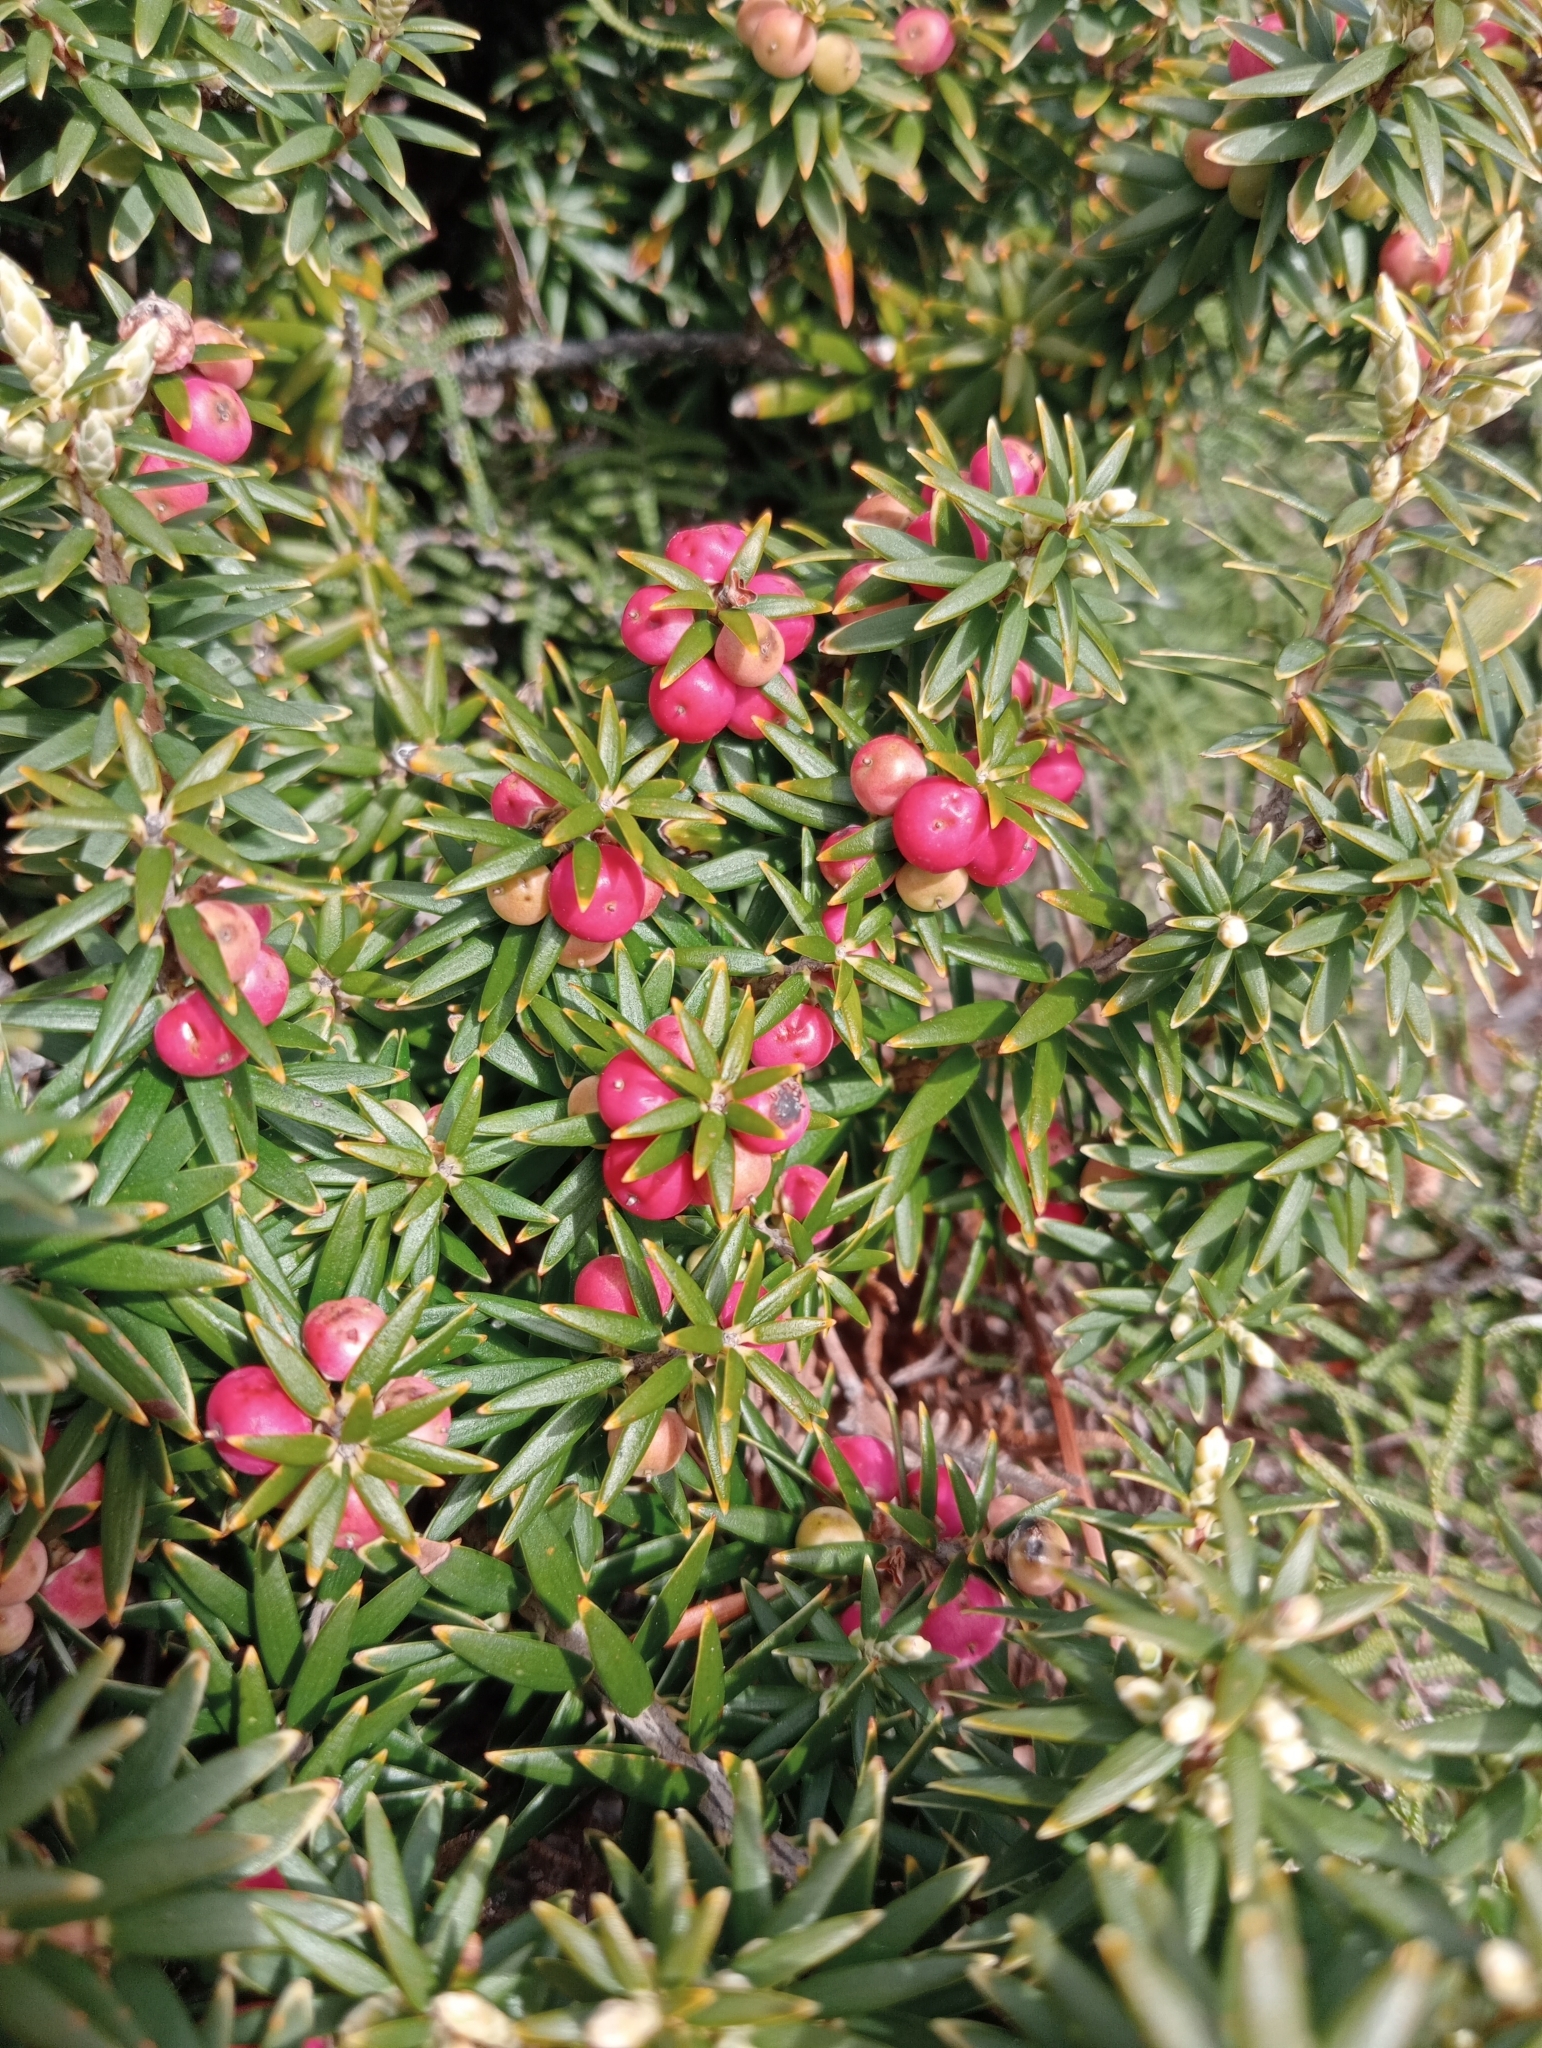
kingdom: Plantae
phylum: Tracheophyta
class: Magnoliopsida
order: Ericales
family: Ericaceae
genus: Leptecophylla
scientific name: Leptecophylla robusta
